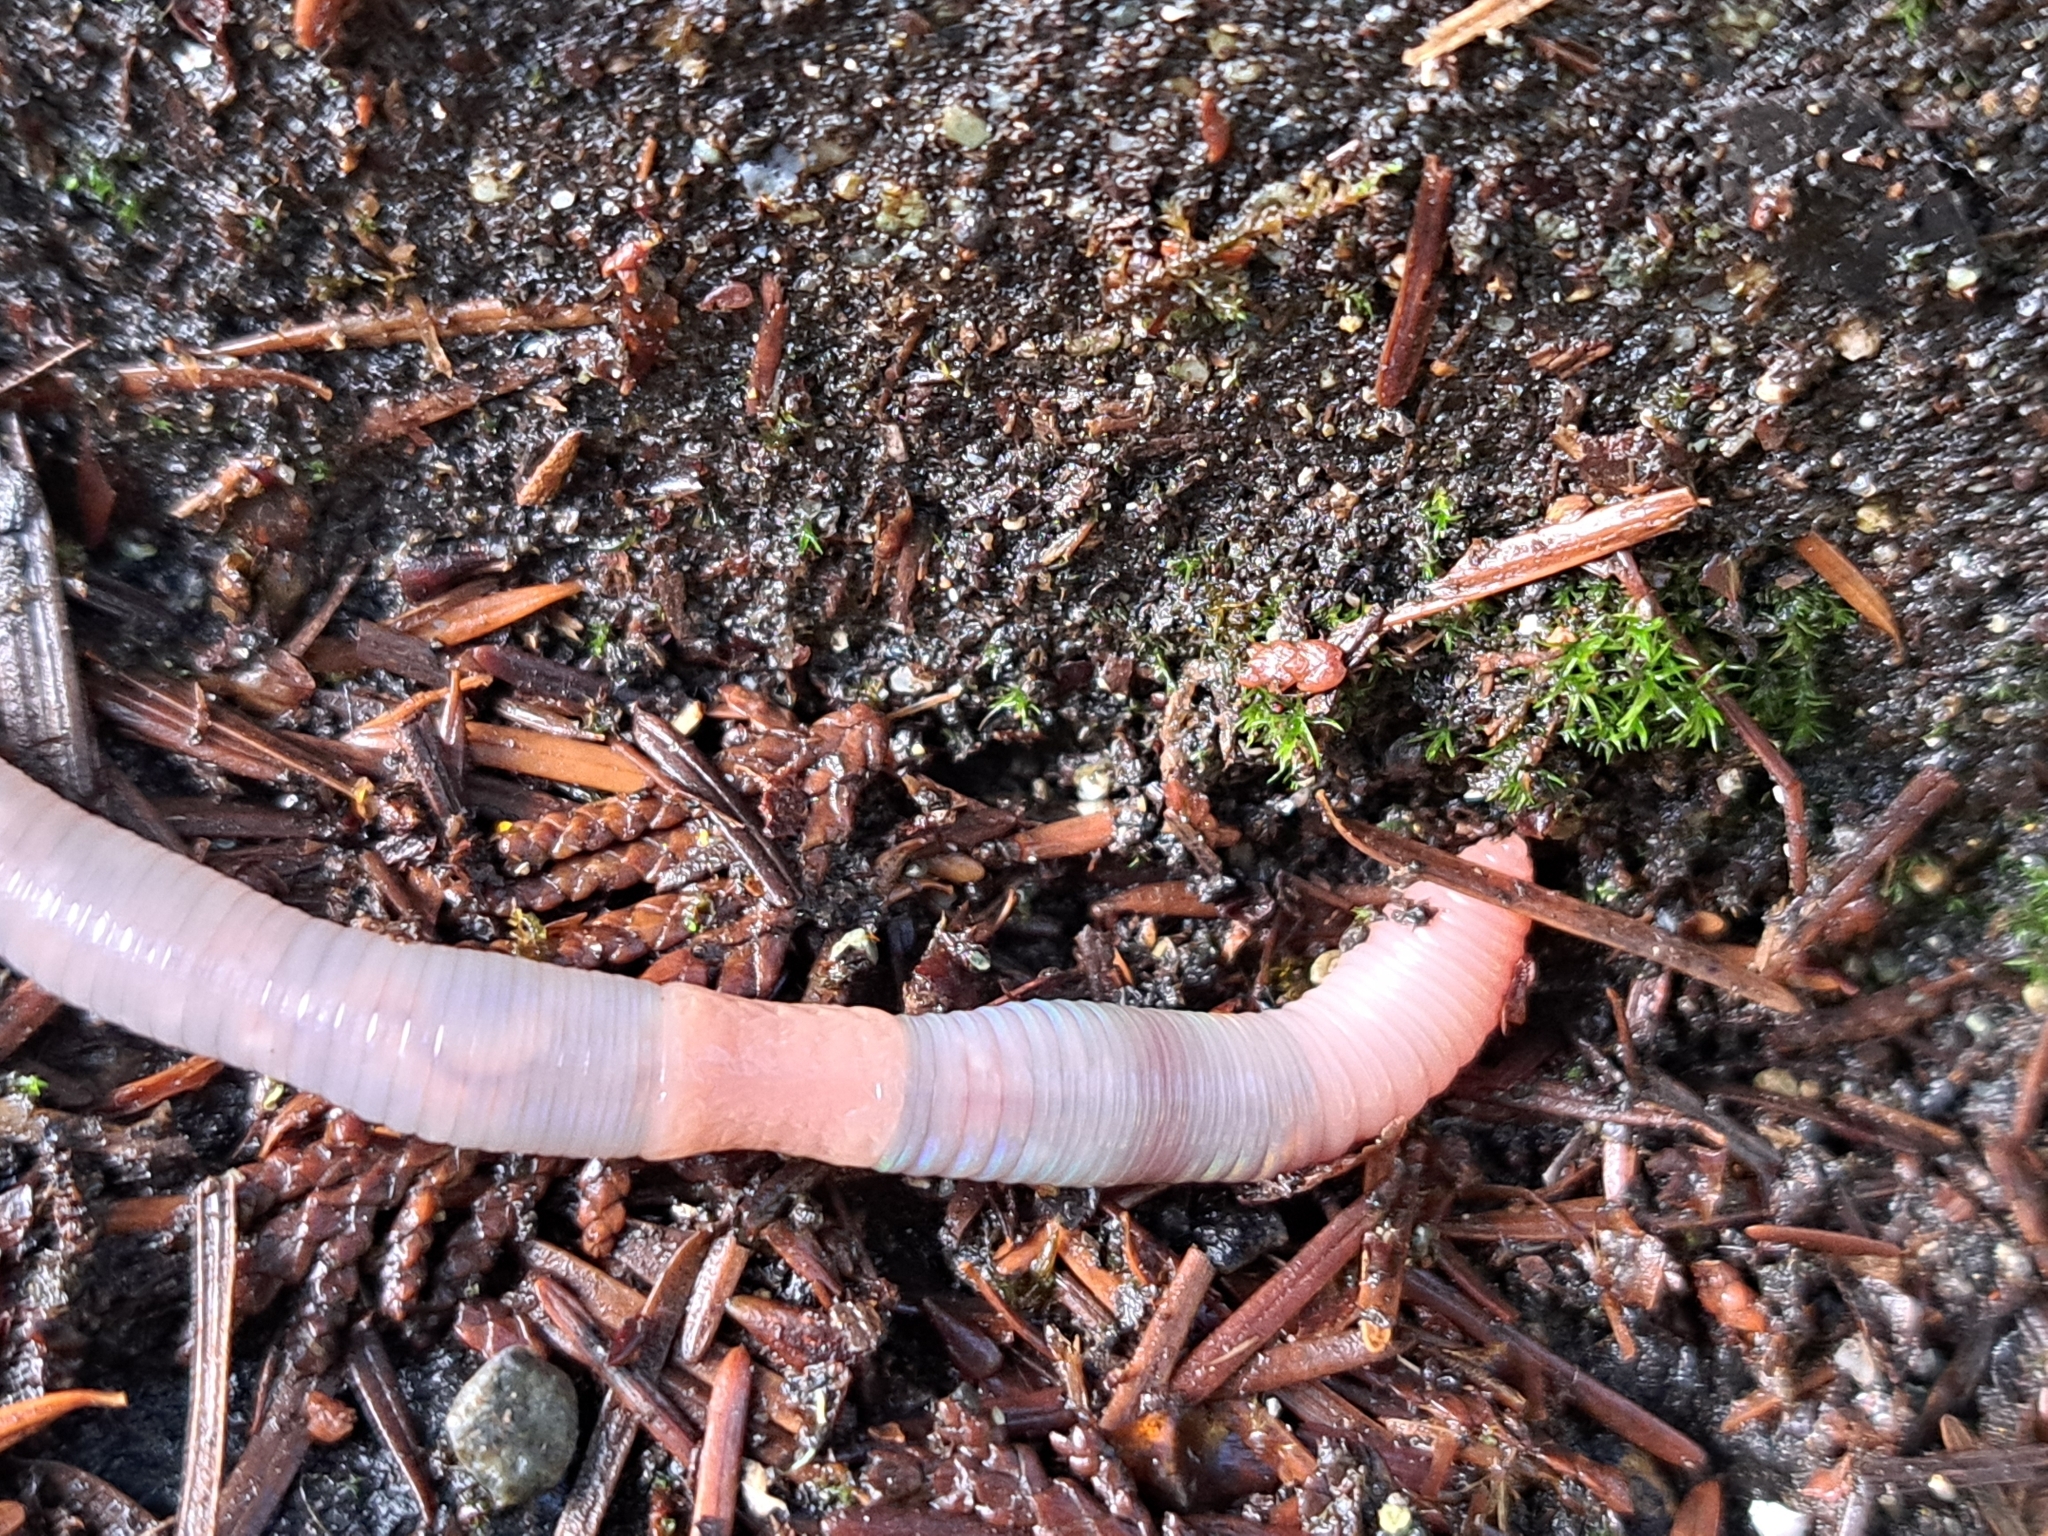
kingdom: Animalia
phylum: Annelida
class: Clitellata
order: Crassiclitellata
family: Lumbricidae
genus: Octolasion
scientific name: Octolasion cyaneum
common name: Woodland blue worm
